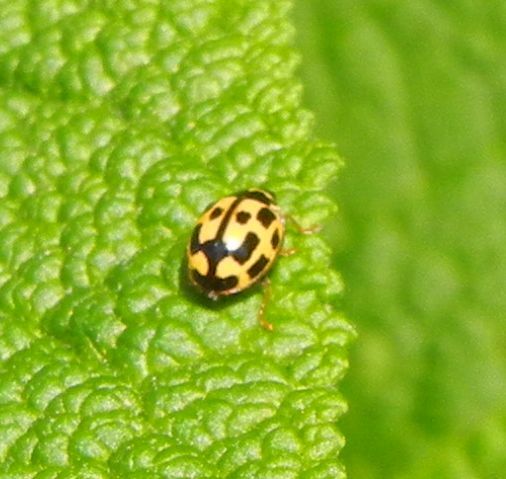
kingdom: Animalia
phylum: Arthropoda
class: Insecta
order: Coleoptera
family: Coccinellidae
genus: Propylaea
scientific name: Propylaea quatuordecimpunctata
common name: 14-spotted ladybird beetle
